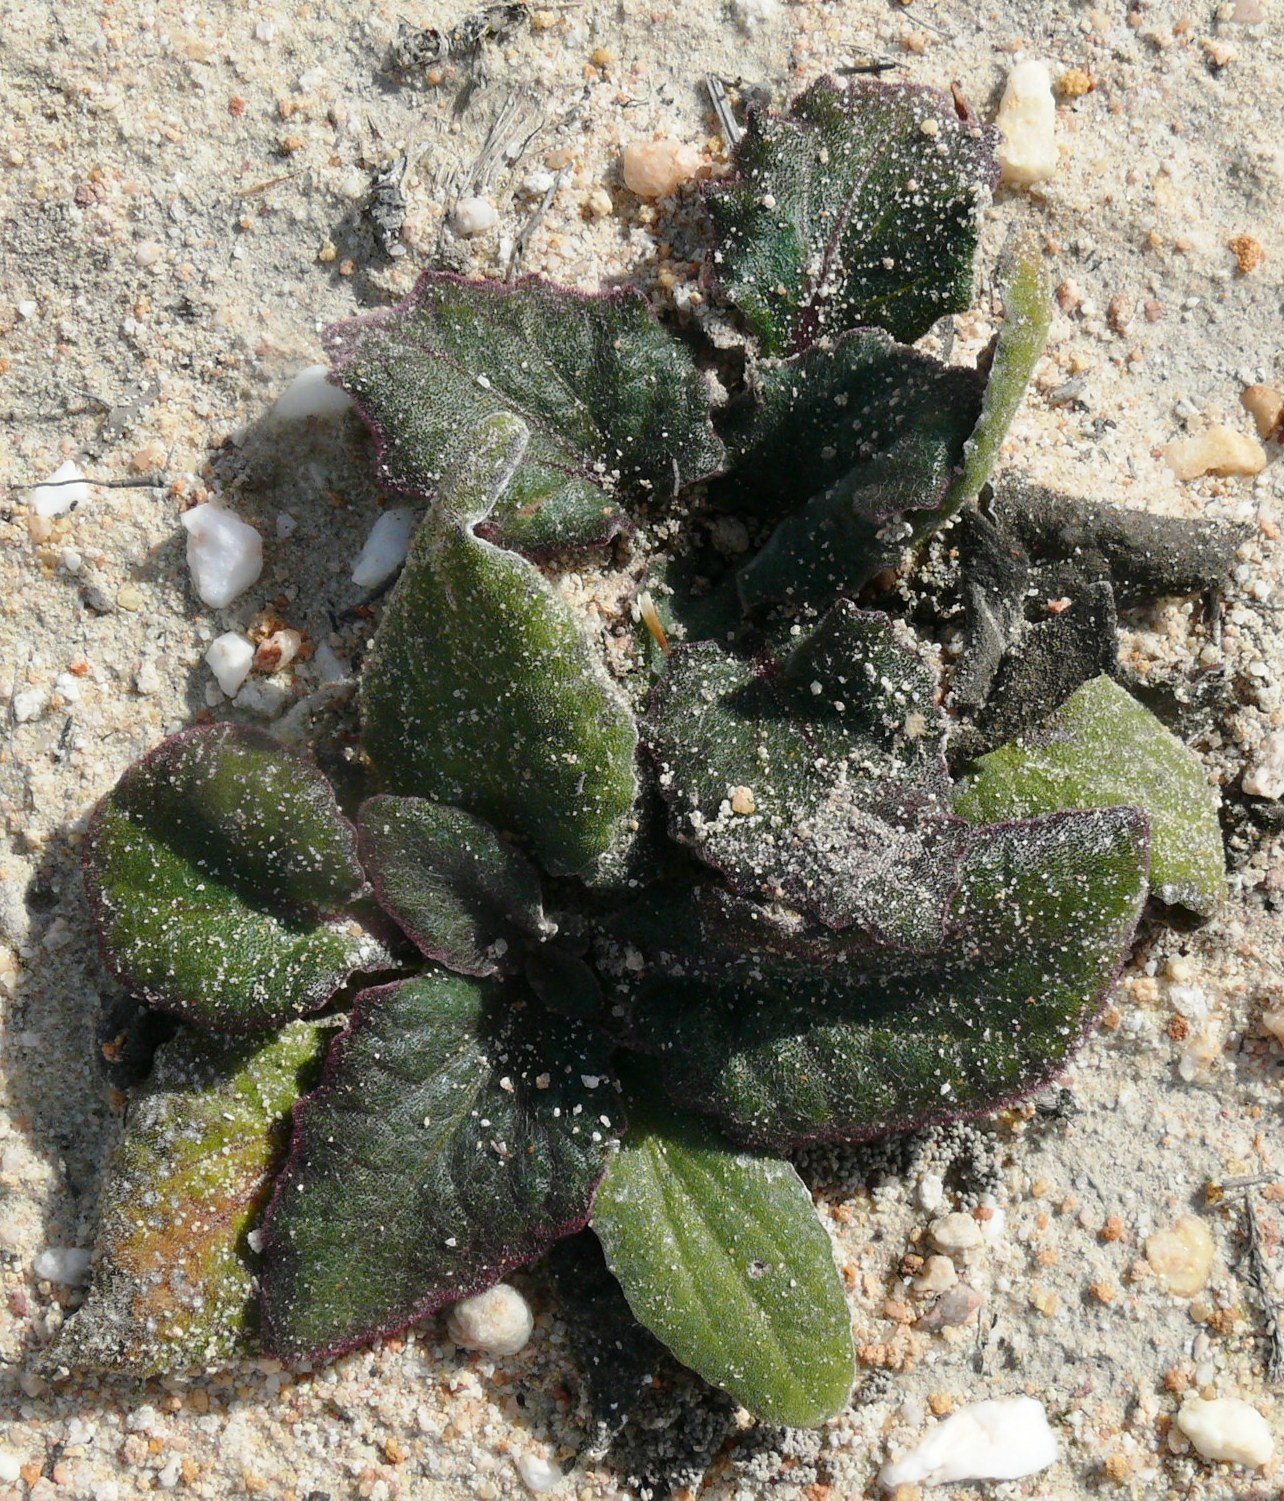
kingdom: Plantae
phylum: Tracheophyta
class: Magnoliopsida
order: Asterales
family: Asteraceae
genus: Haplocarpha
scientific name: Haplocarpha lanata
